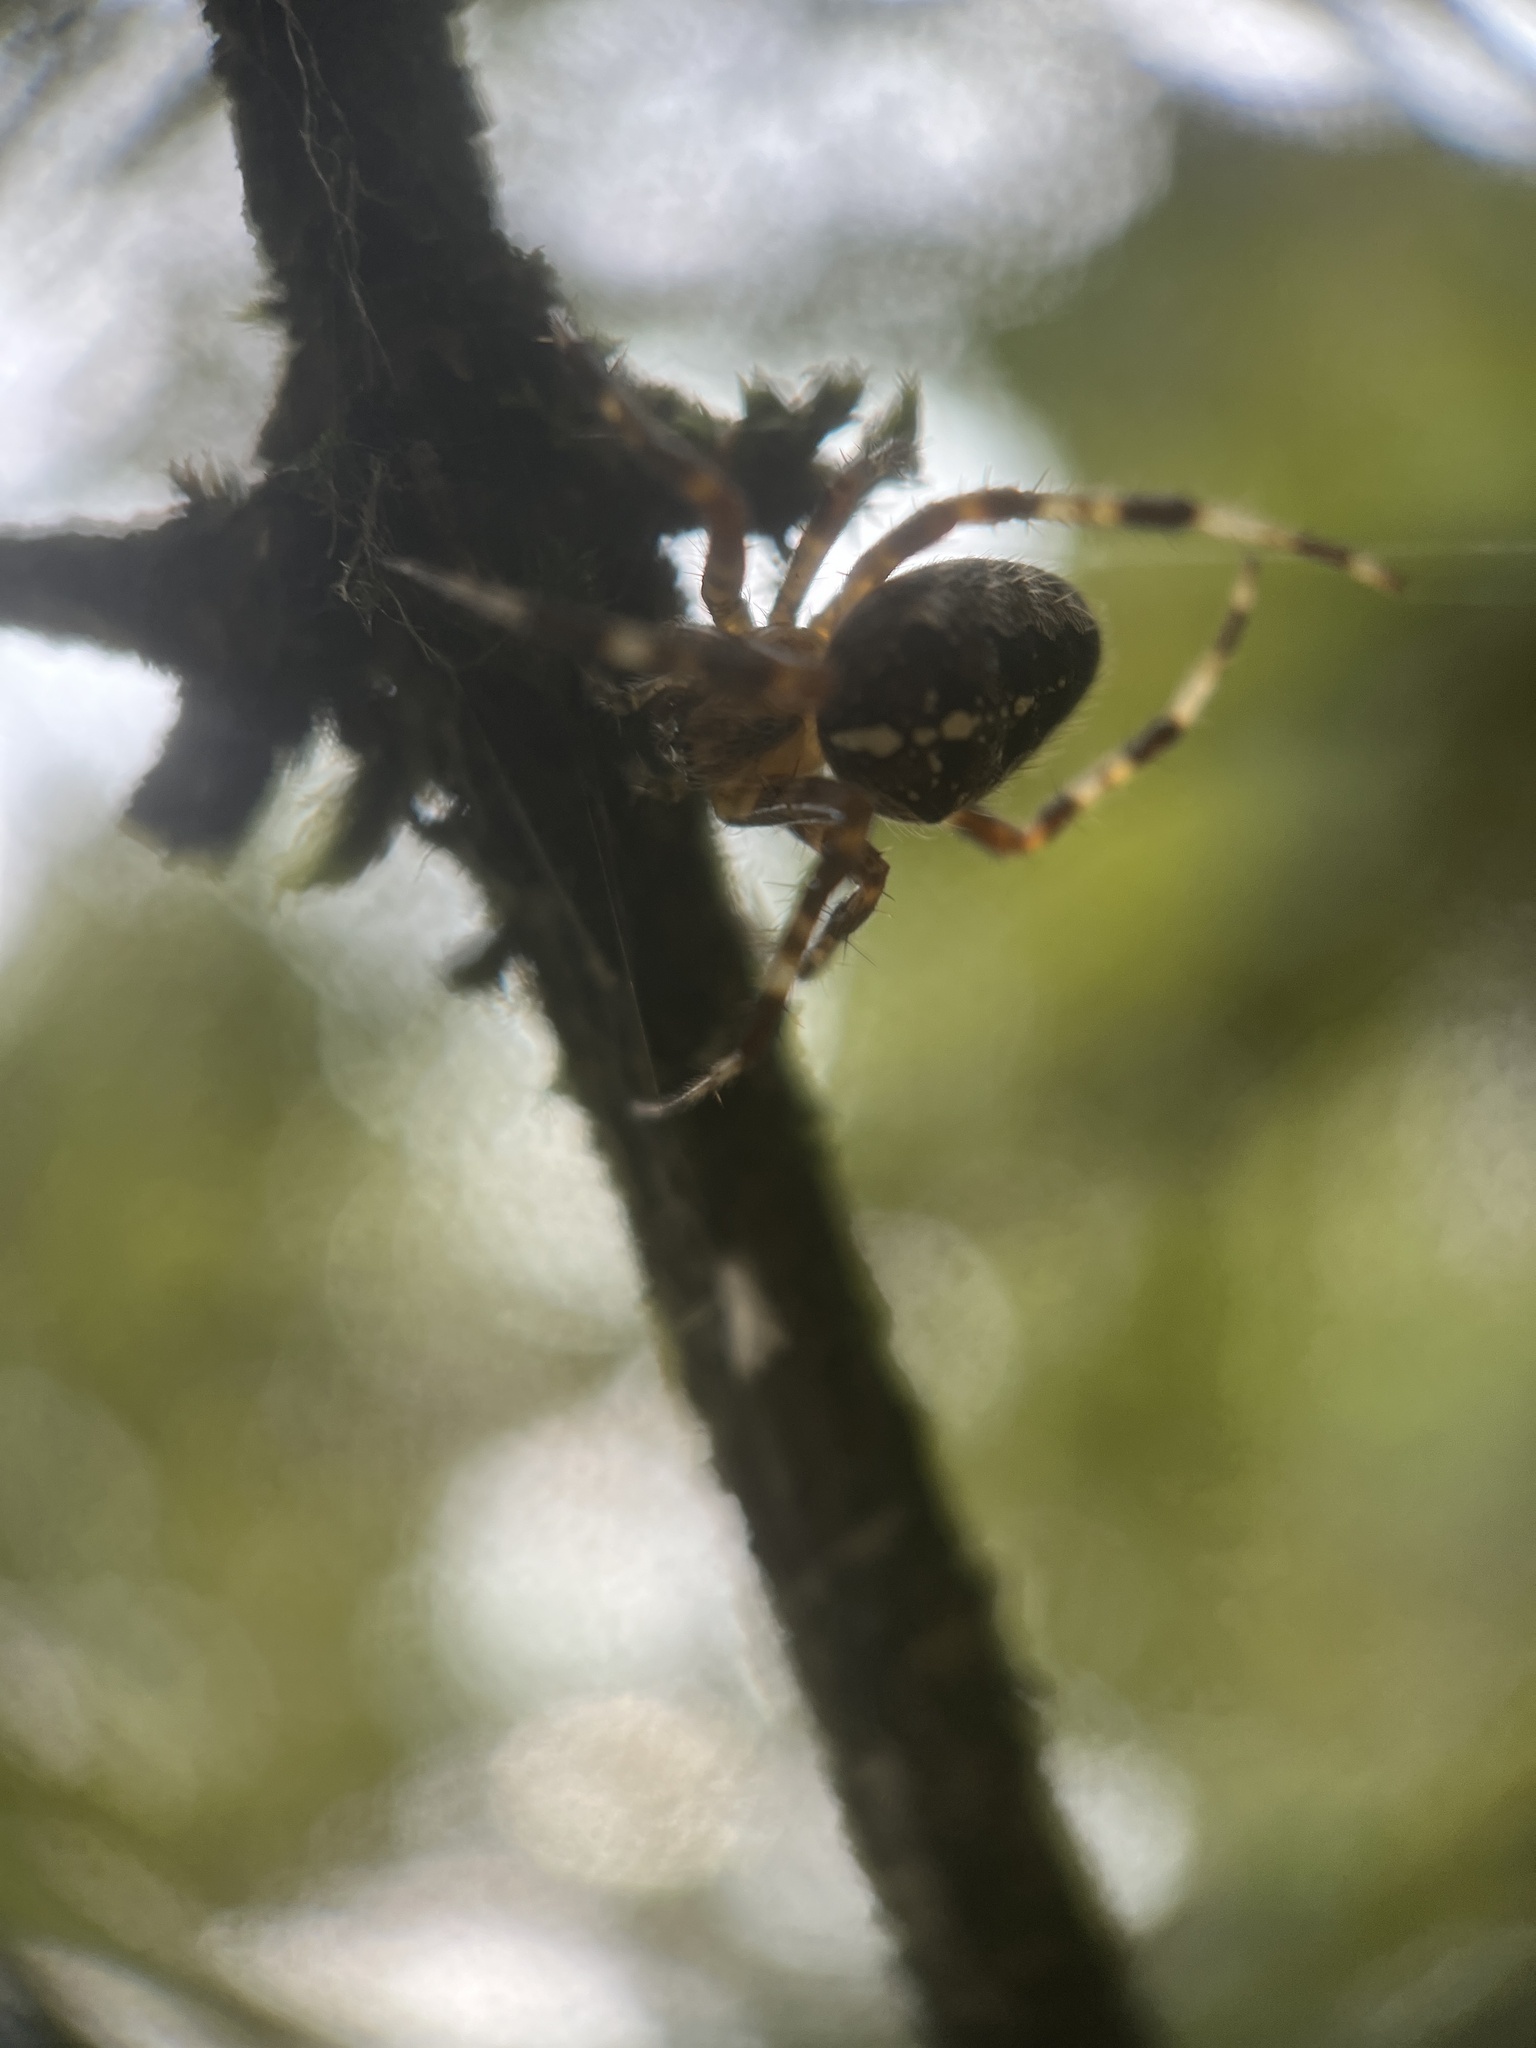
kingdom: Animalia
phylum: Arthropoda
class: Arachnida
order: Araneae
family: Araneidae
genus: Araneus
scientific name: Araneus diadematus
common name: Cross orbweaver
